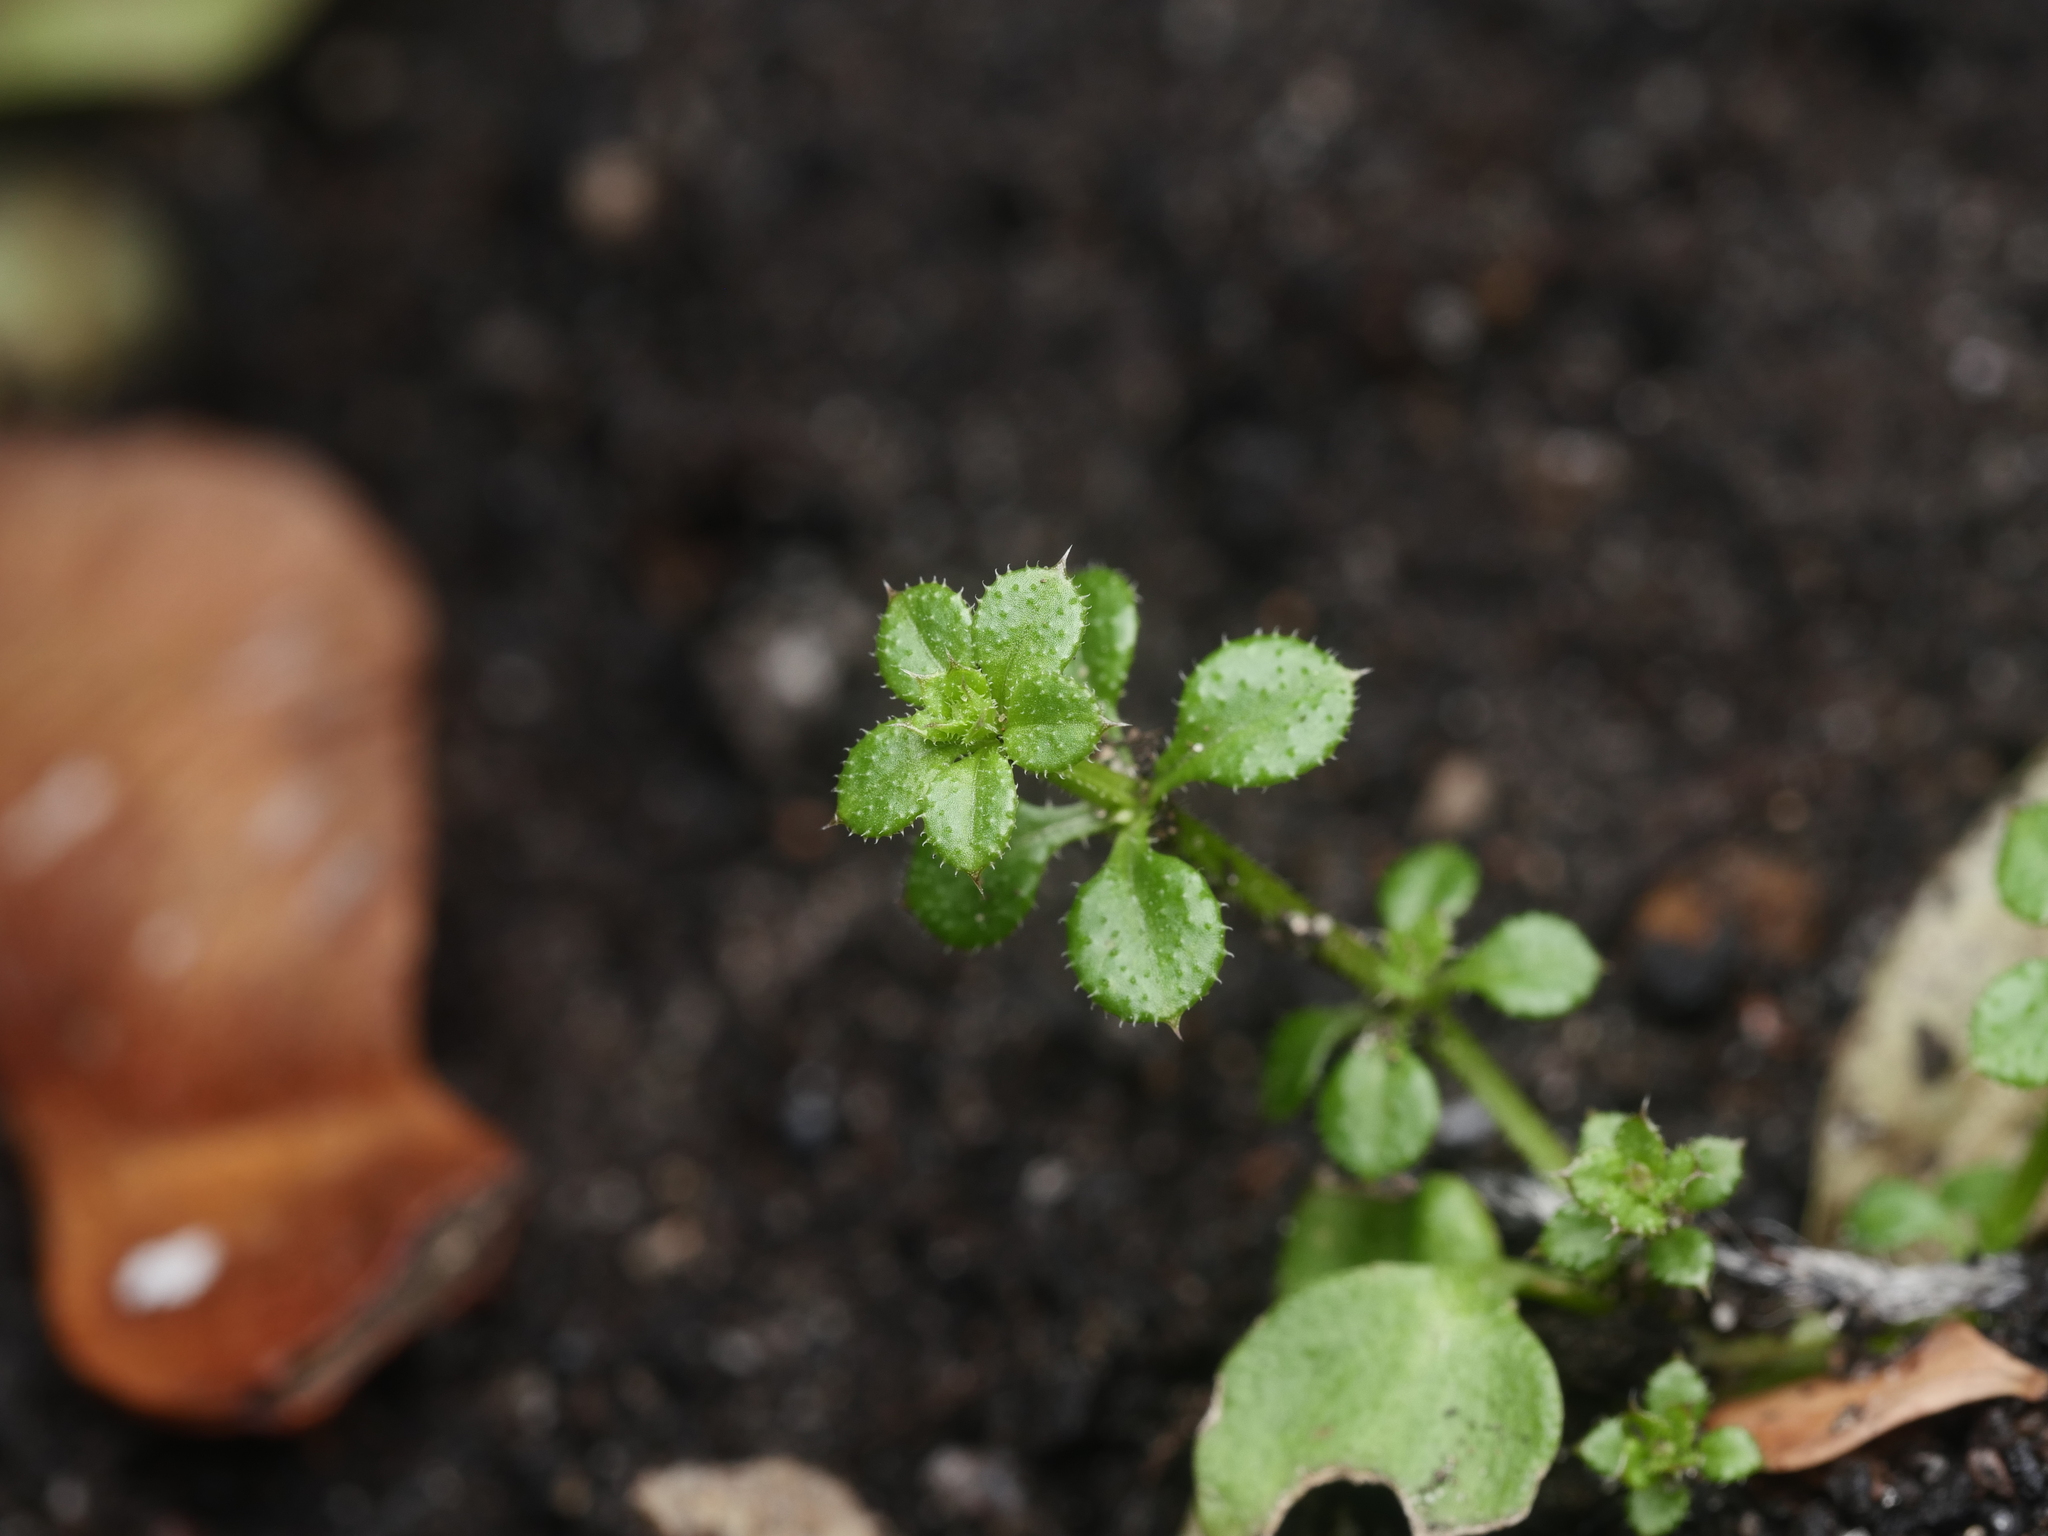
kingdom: Plantae
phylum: Tracheophyta
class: Magnoliopsida
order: Gentianales
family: Rubiaceae
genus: Galium
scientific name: Galium aparine
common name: Cleavers
